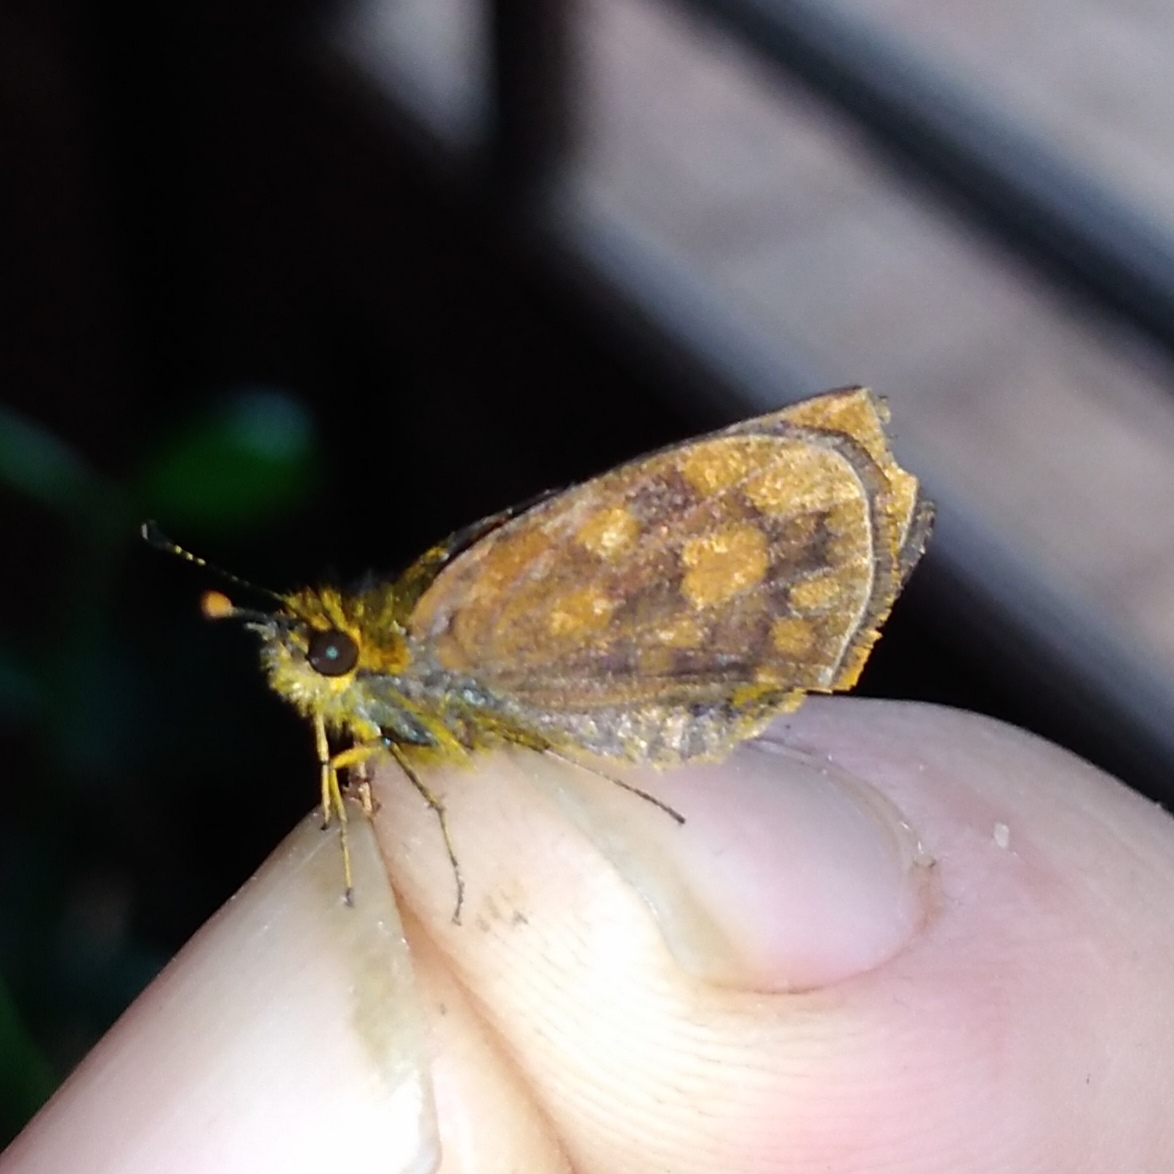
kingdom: Animalia
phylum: Arthropoda
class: Insecta
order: Lepidoptera
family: Hesperiidae
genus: Metisella
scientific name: Metisella metis
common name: Western gold-spotted sylph
